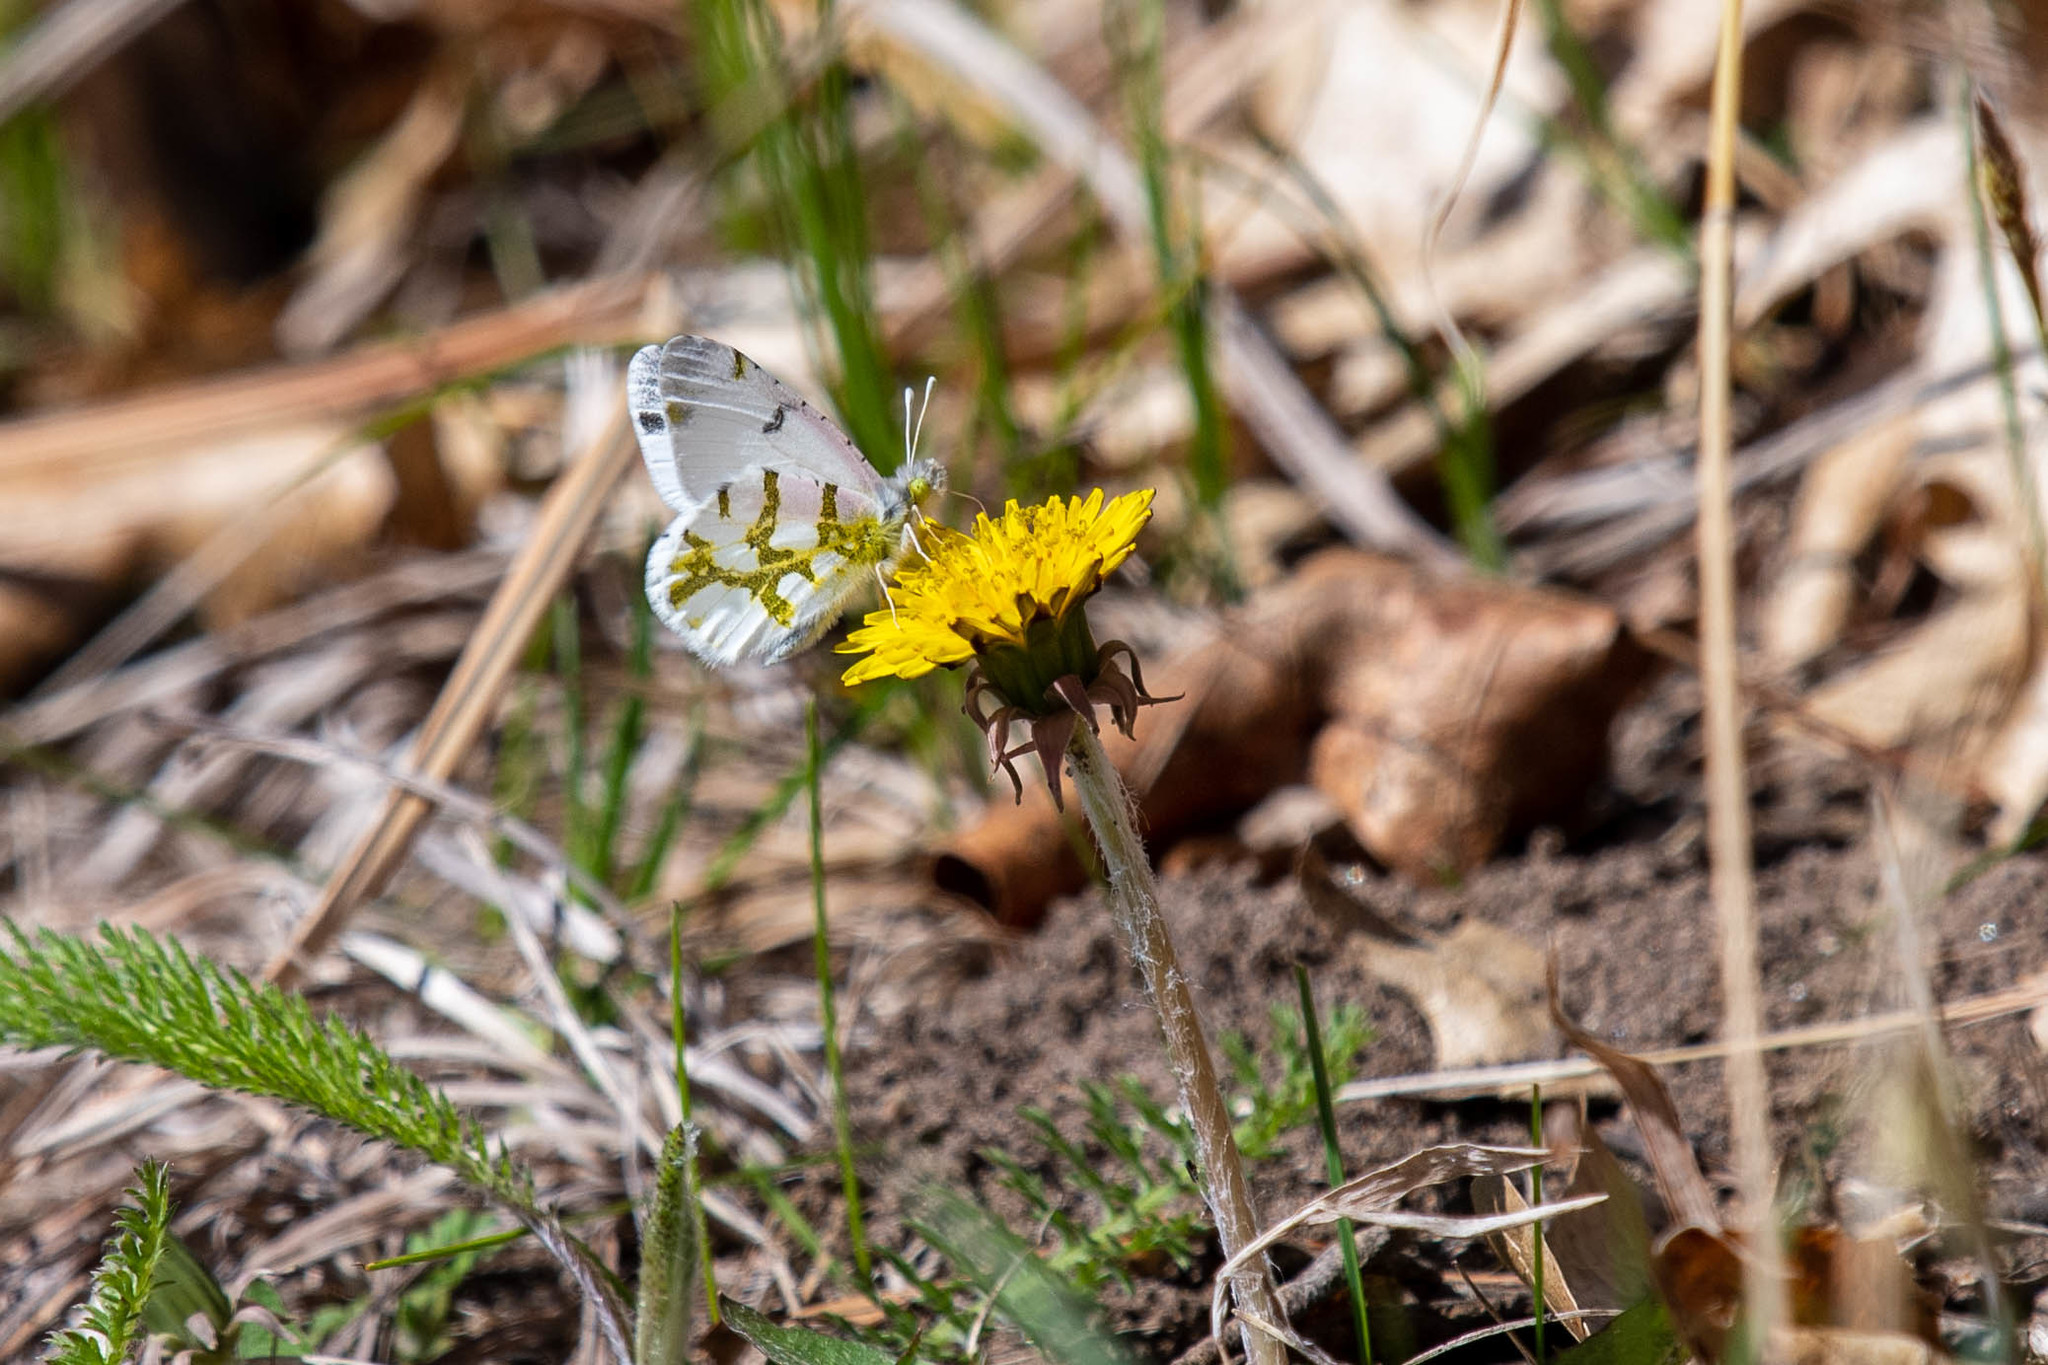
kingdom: Animalia
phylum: Arthropoda
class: Insecta
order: Lepidoptera
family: Pieridae
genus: Euchloe
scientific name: Euchloe olympia
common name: Olympia
